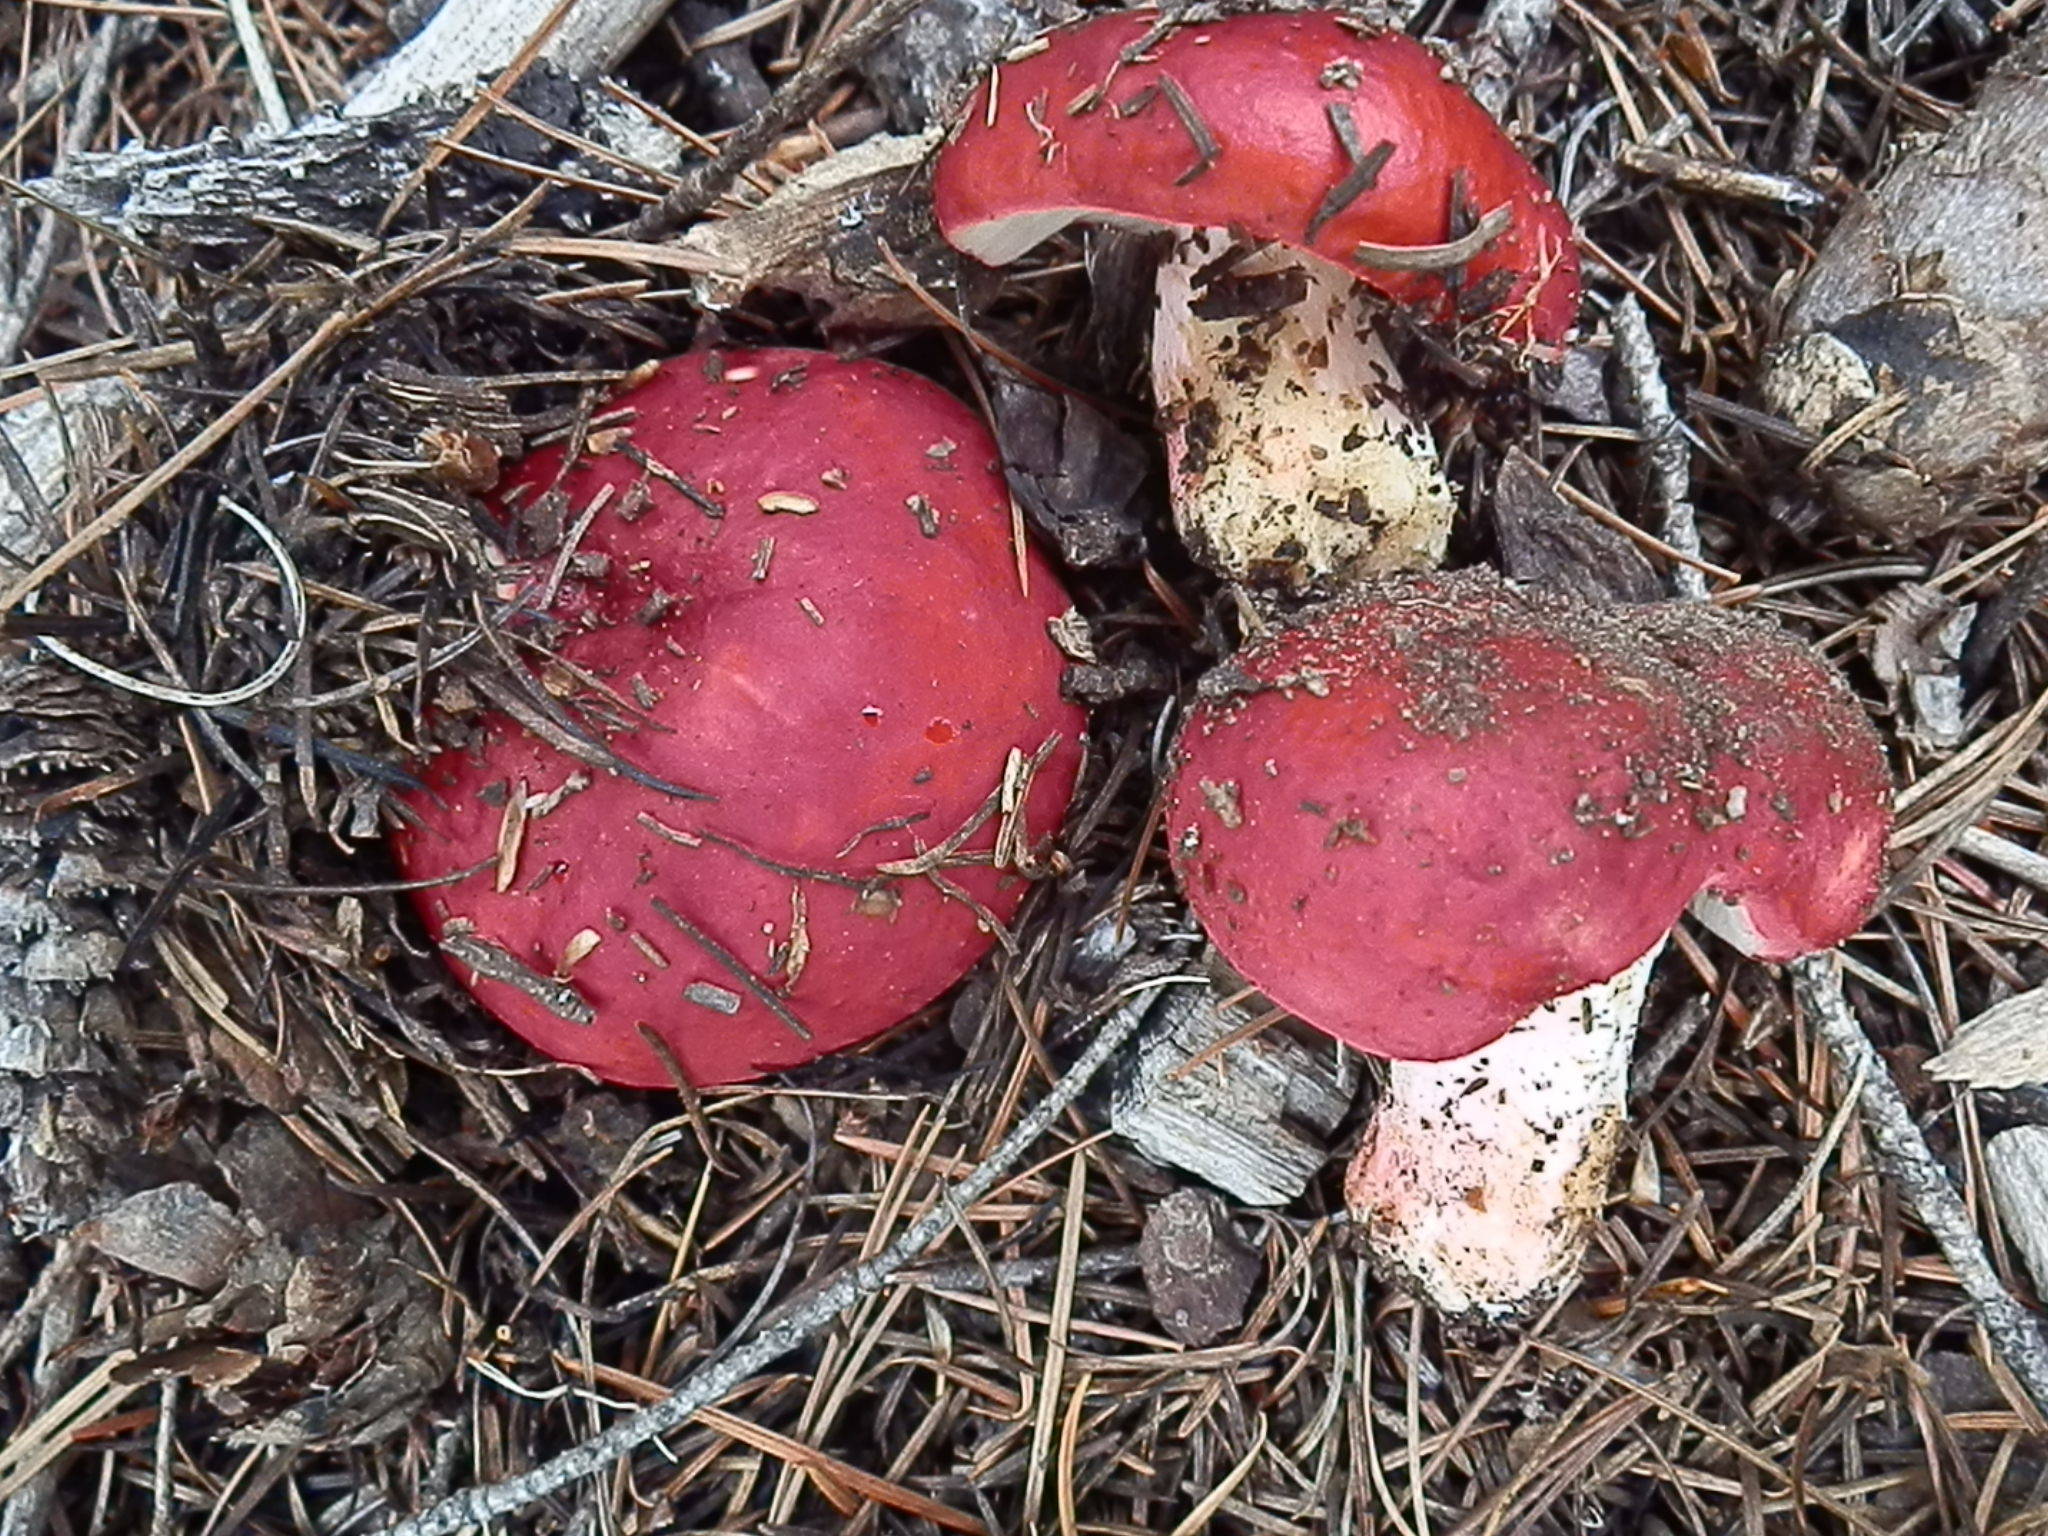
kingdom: Fungi
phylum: Basidiomycota
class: Agaricomycetes
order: Russulales
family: Russulaceae
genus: Russula
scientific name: Russula
